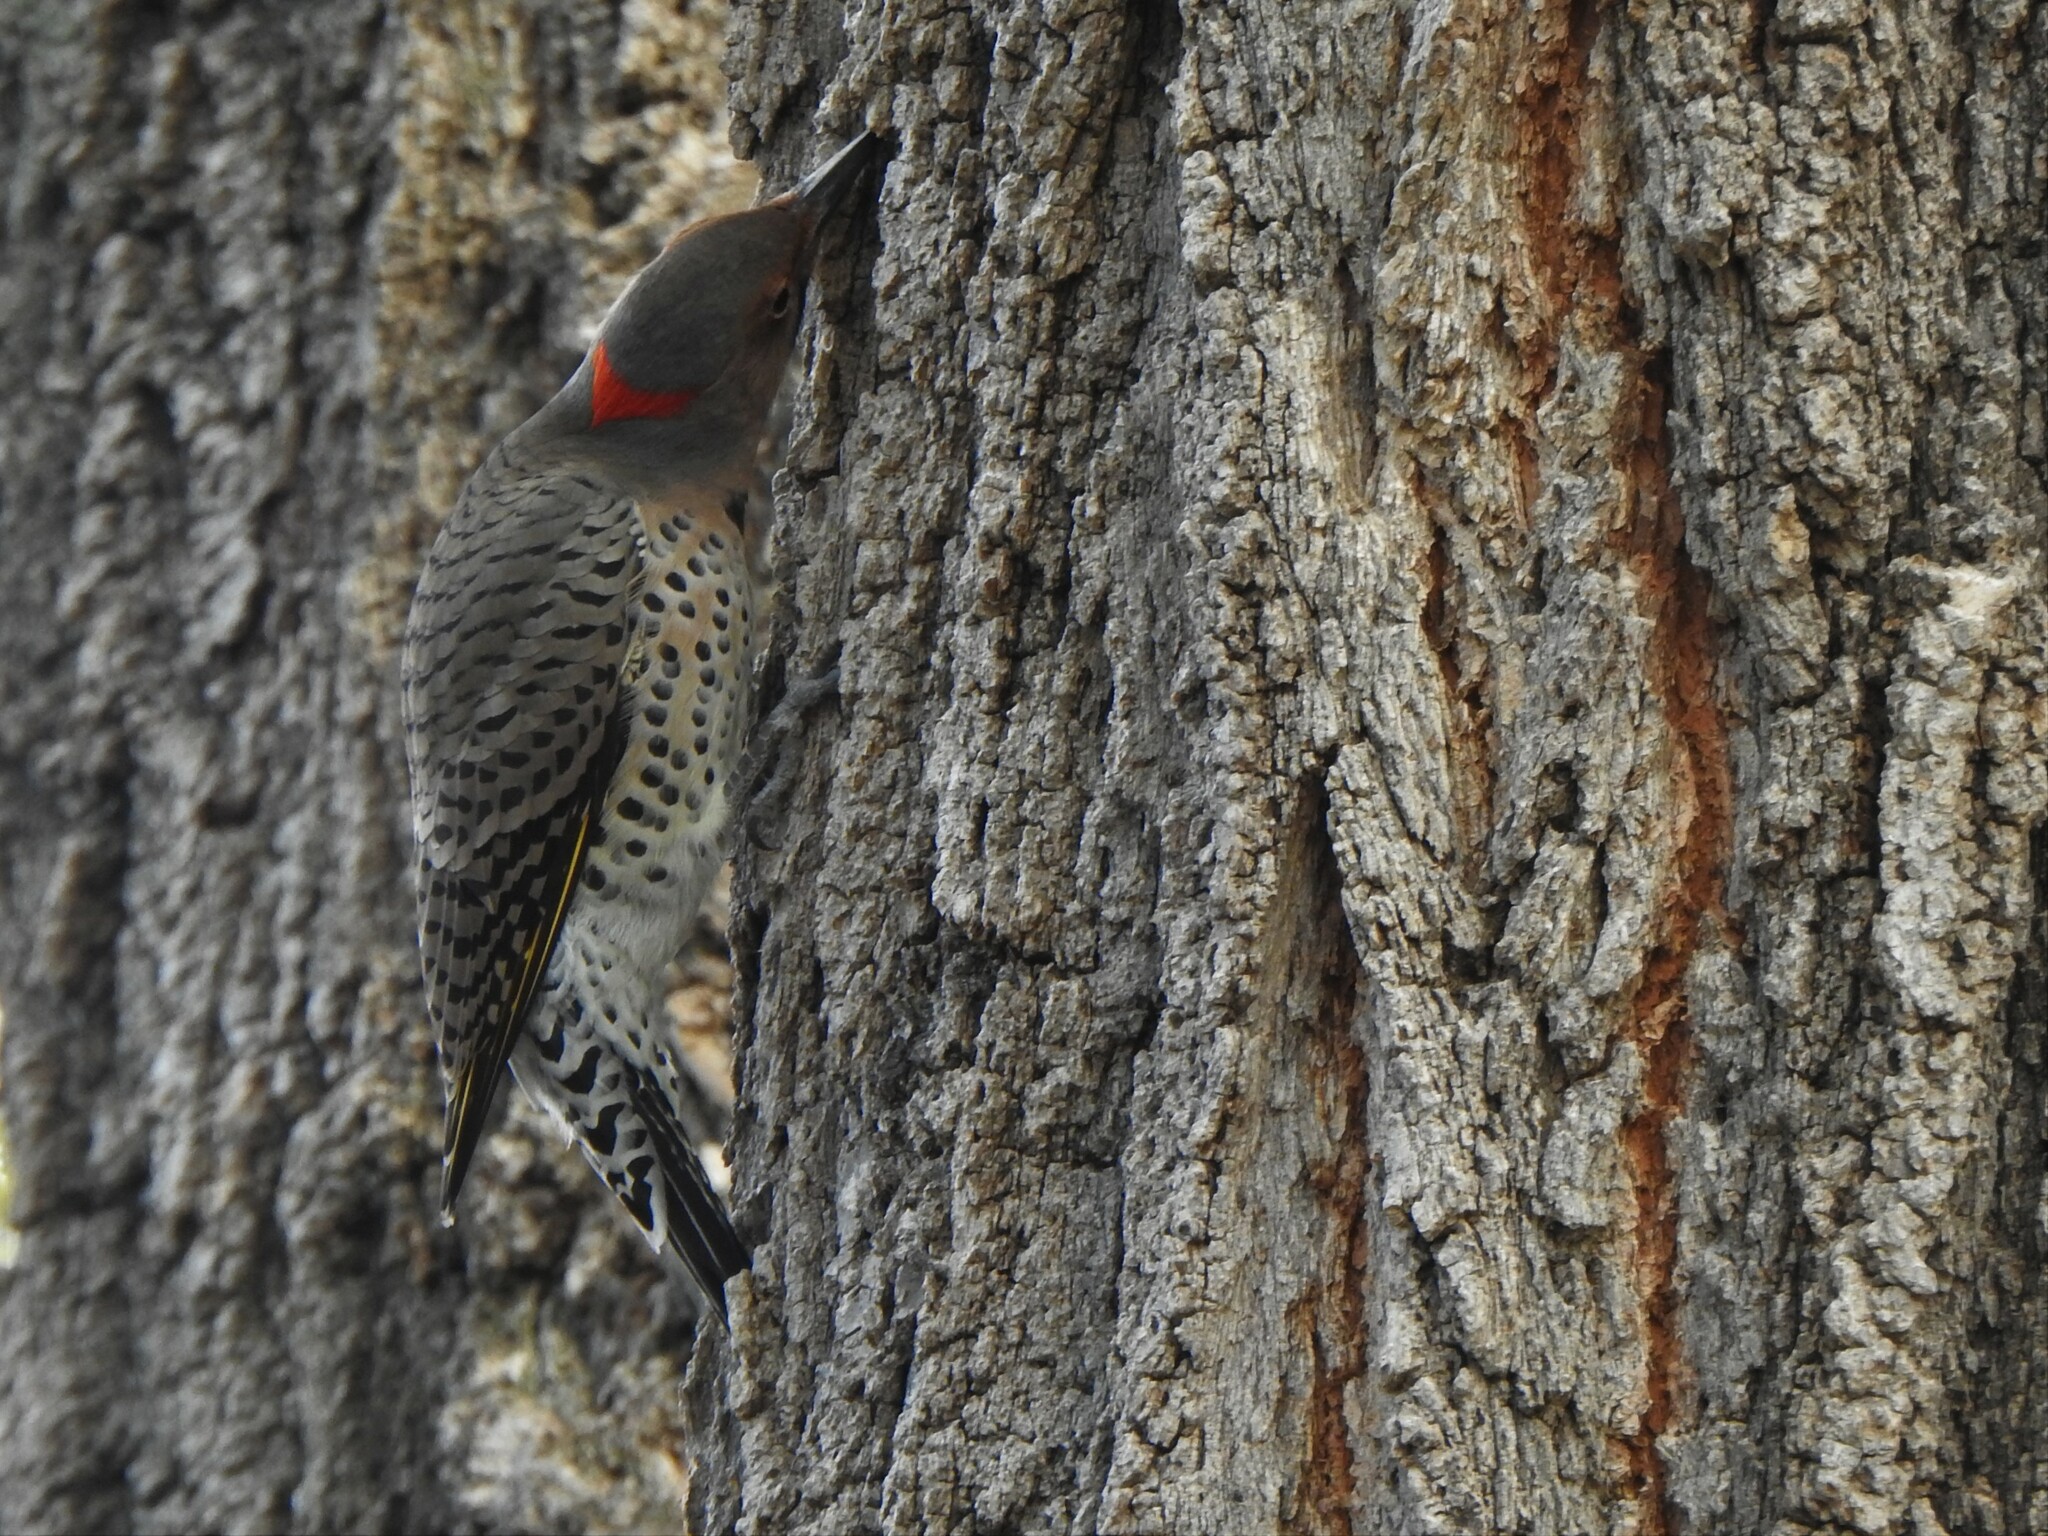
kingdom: Animalia
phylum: Chordata
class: Aves
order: Piciformes
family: Picidae
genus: Colaptes
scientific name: Colaptes auratus
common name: Northern flicker
